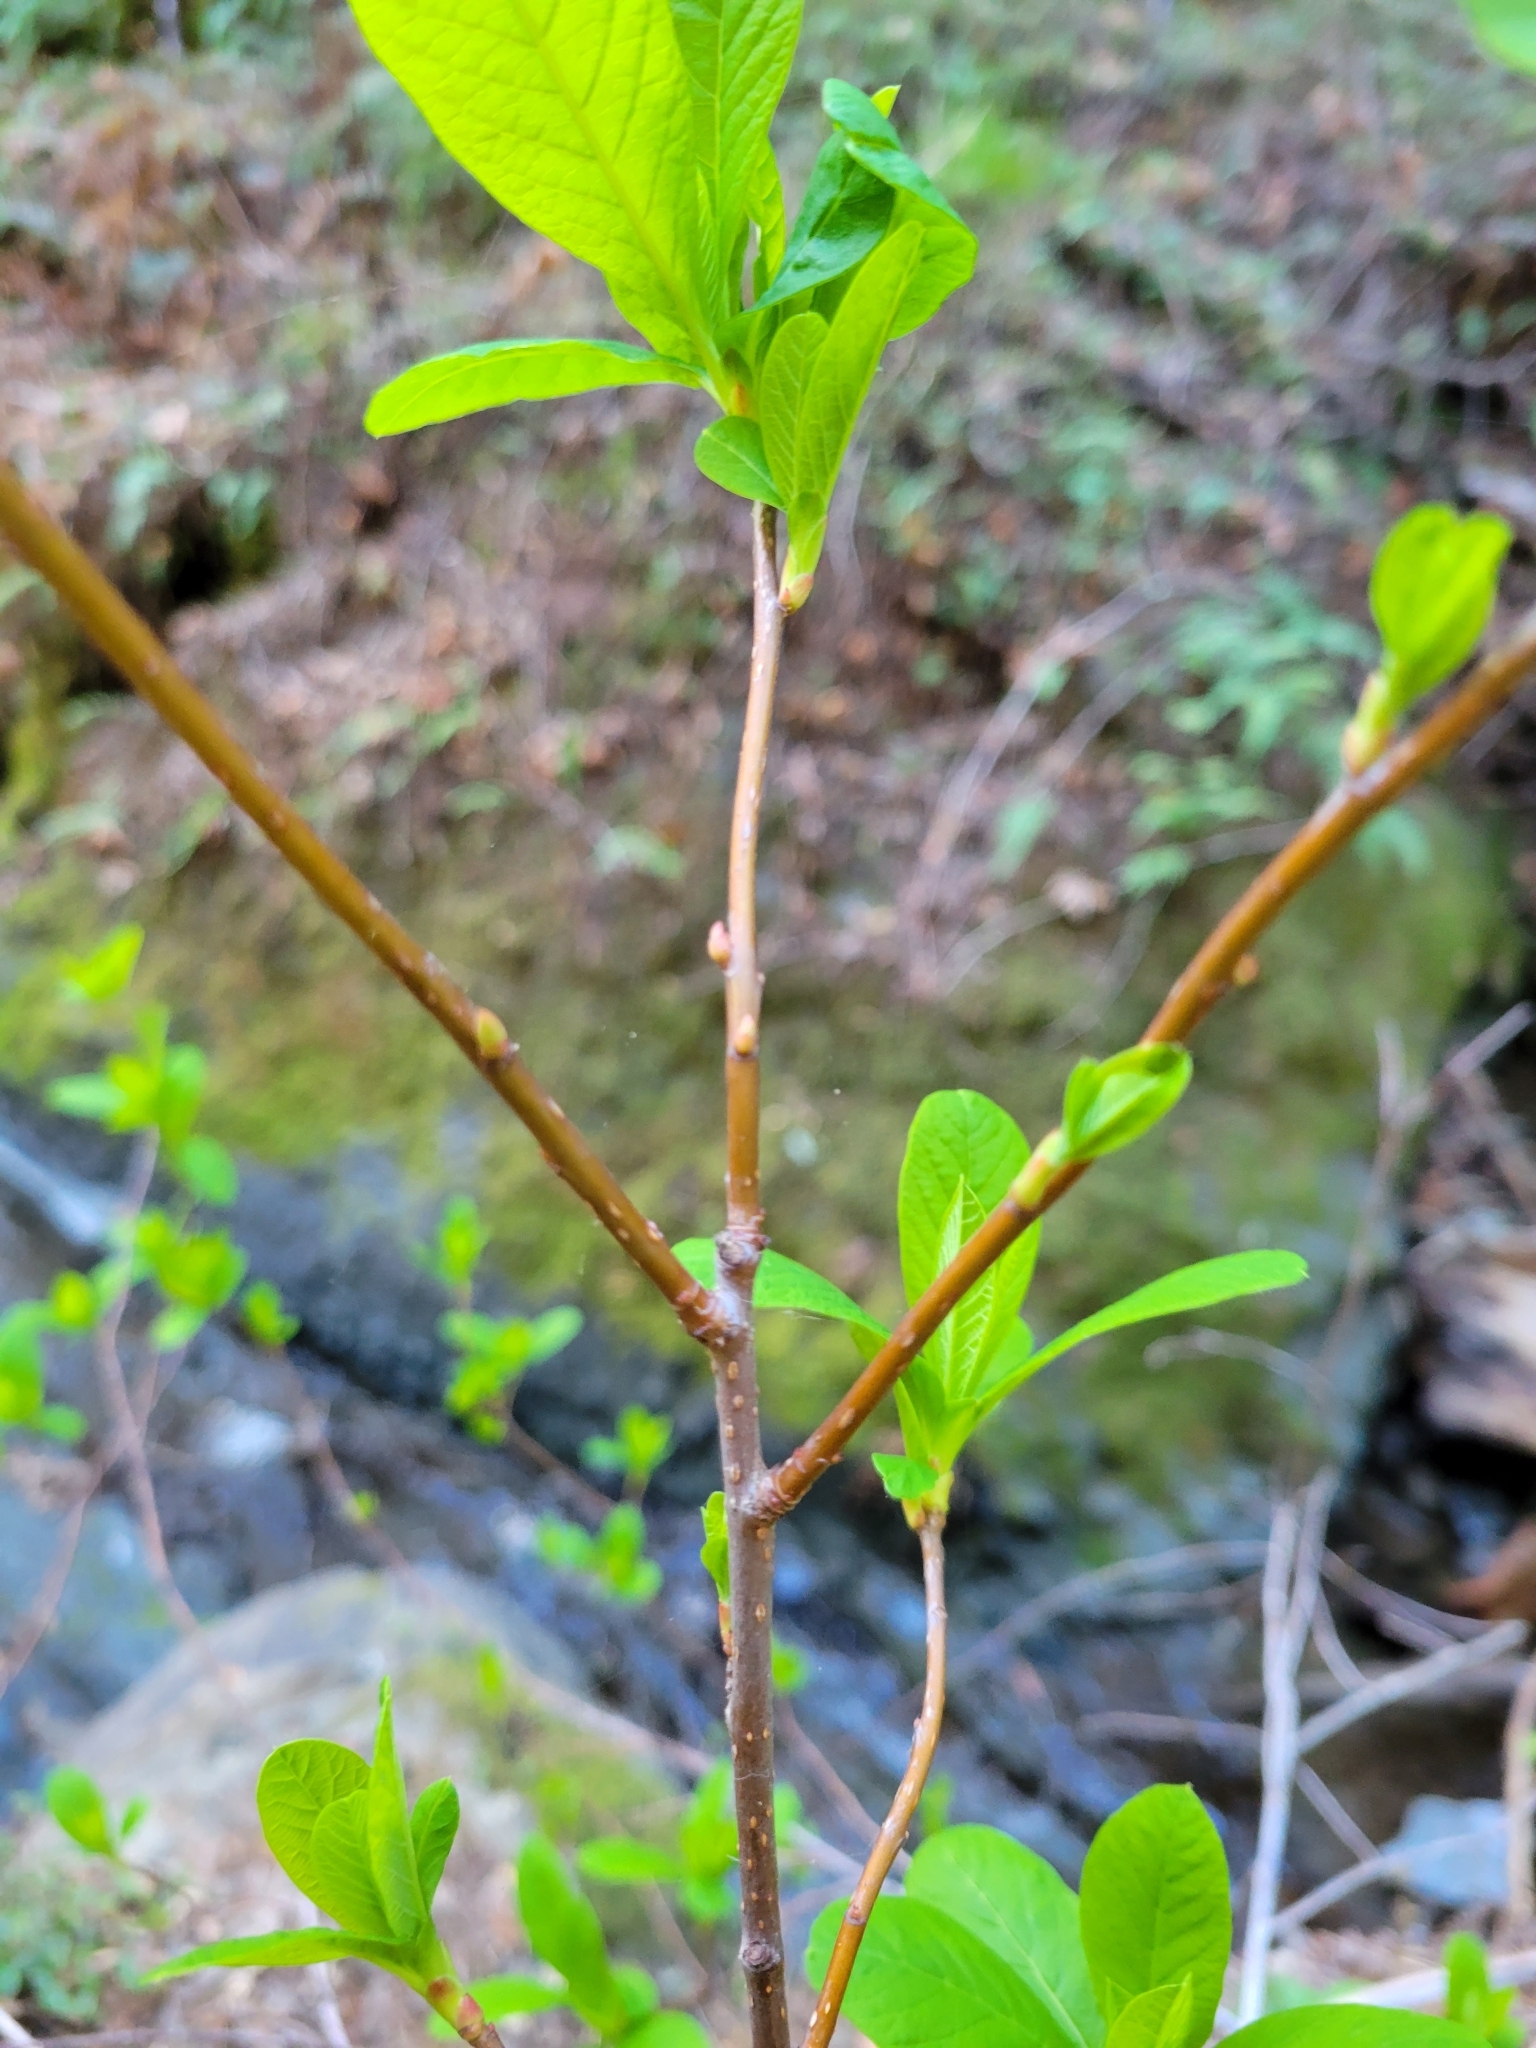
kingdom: Plantae
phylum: Tracheophyta
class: Magnoliopsida
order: Rosales
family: Rosaceae
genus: Oemleria
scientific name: Oemleria cerasiformis
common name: Osoberry
